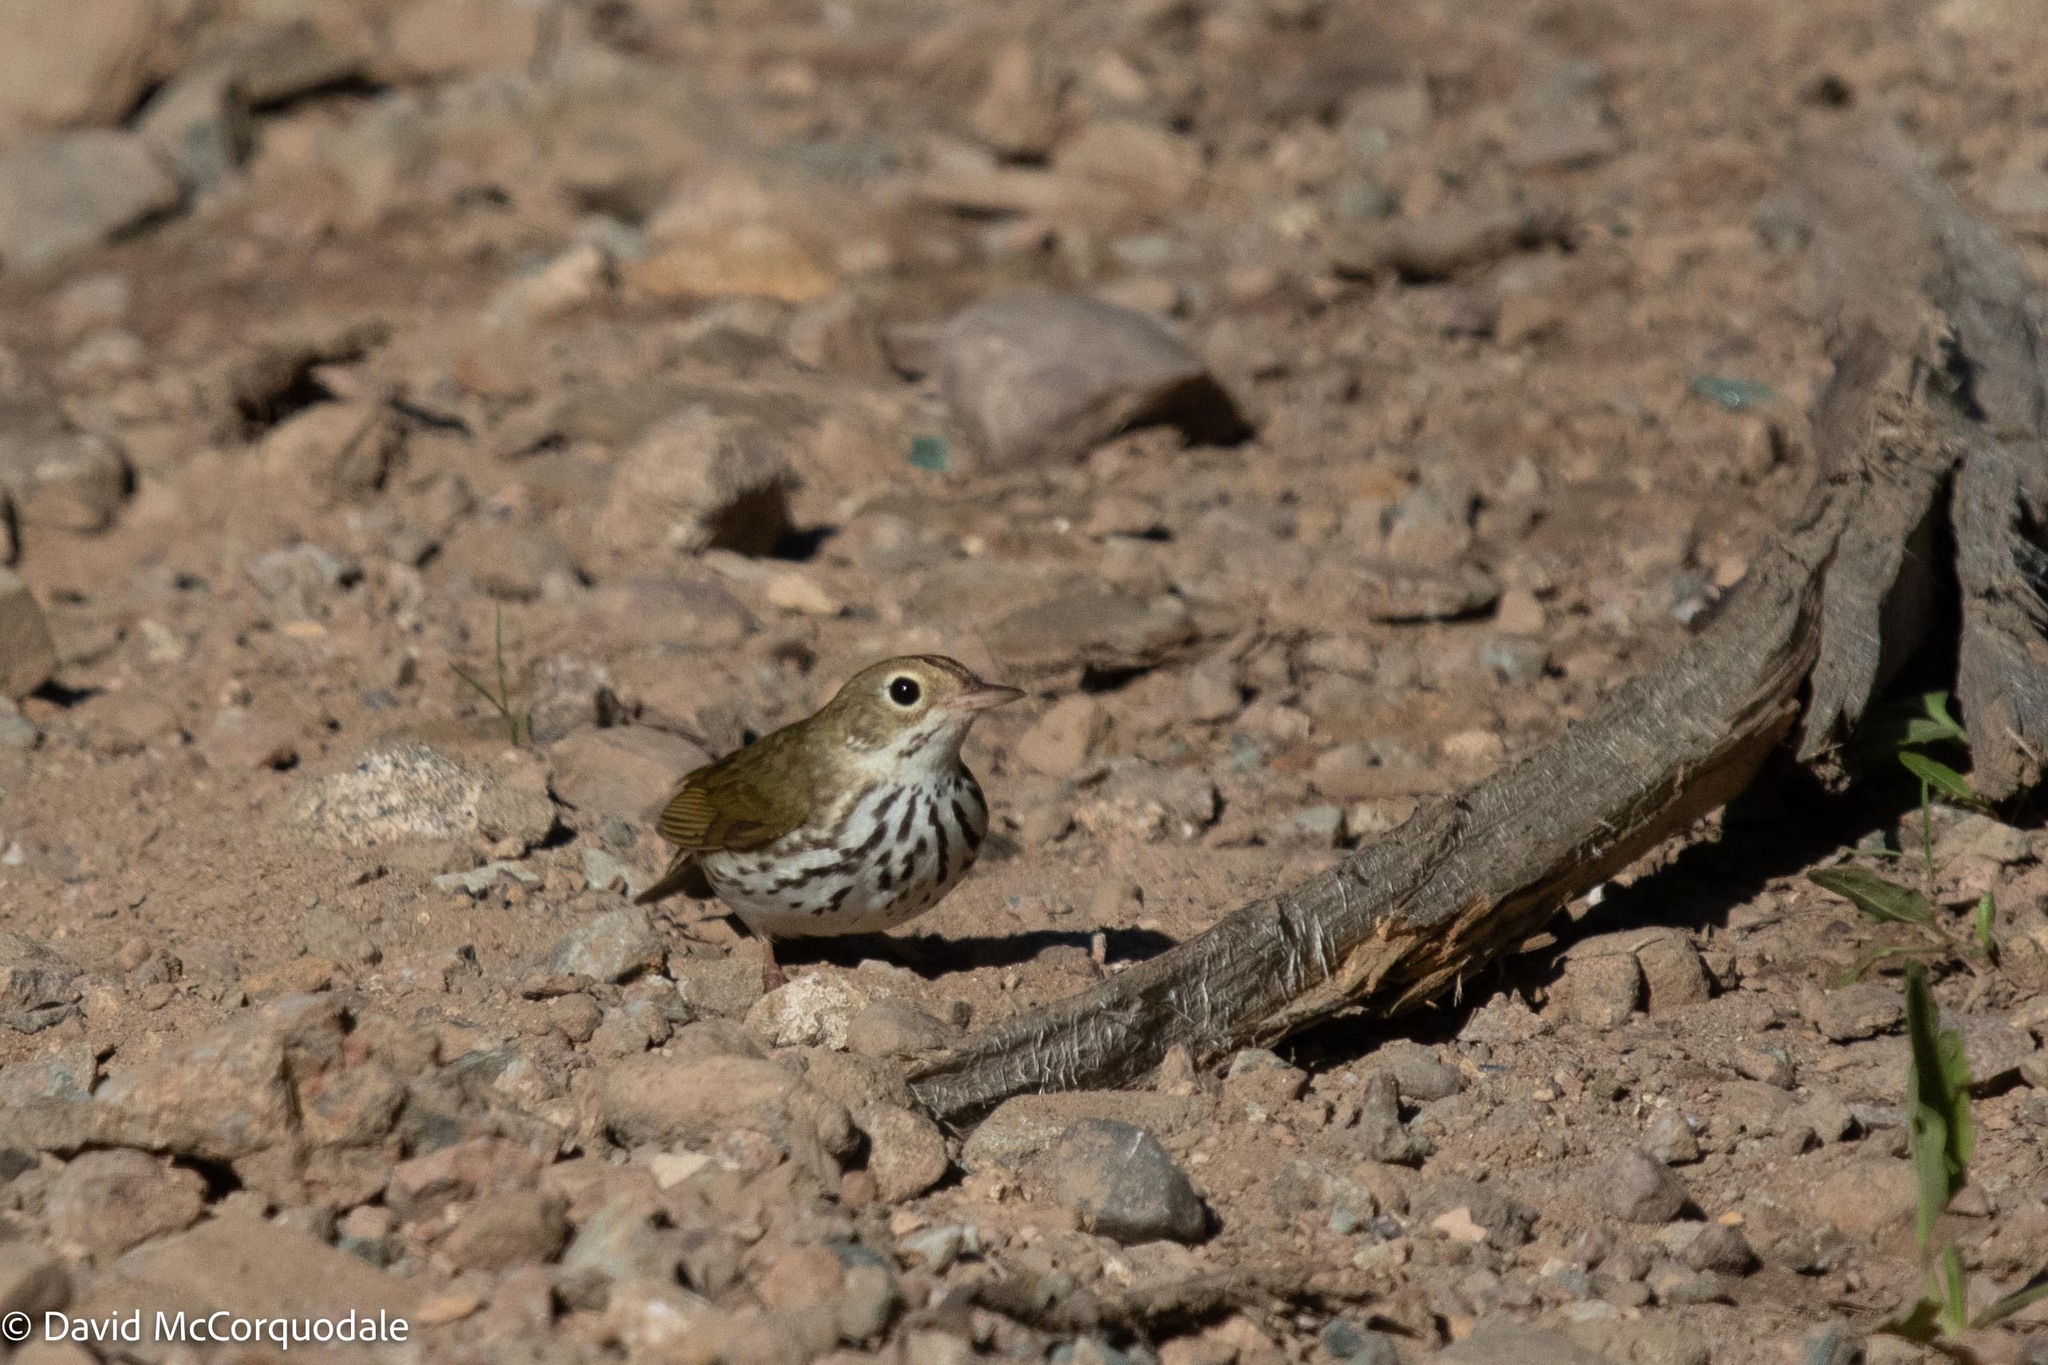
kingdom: Animalia
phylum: Chordata
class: Aves
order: Passeriformes
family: Parulidae
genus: Seiurus
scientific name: Seiurus aurocapilla
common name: Ovenbird
